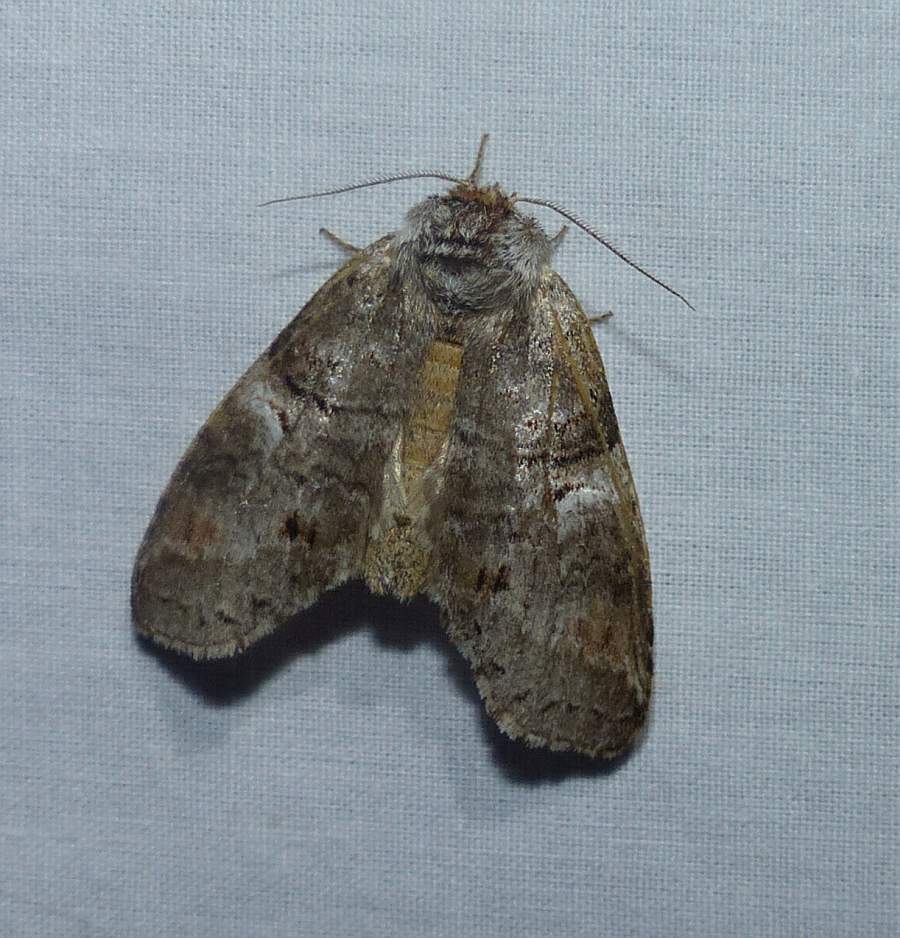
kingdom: Animalia
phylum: Arthropoda
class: Insecta
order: Lepidoptera
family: Notodontidae
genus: Ellida
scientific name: Ellida caniplaga
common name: Linden prominent
